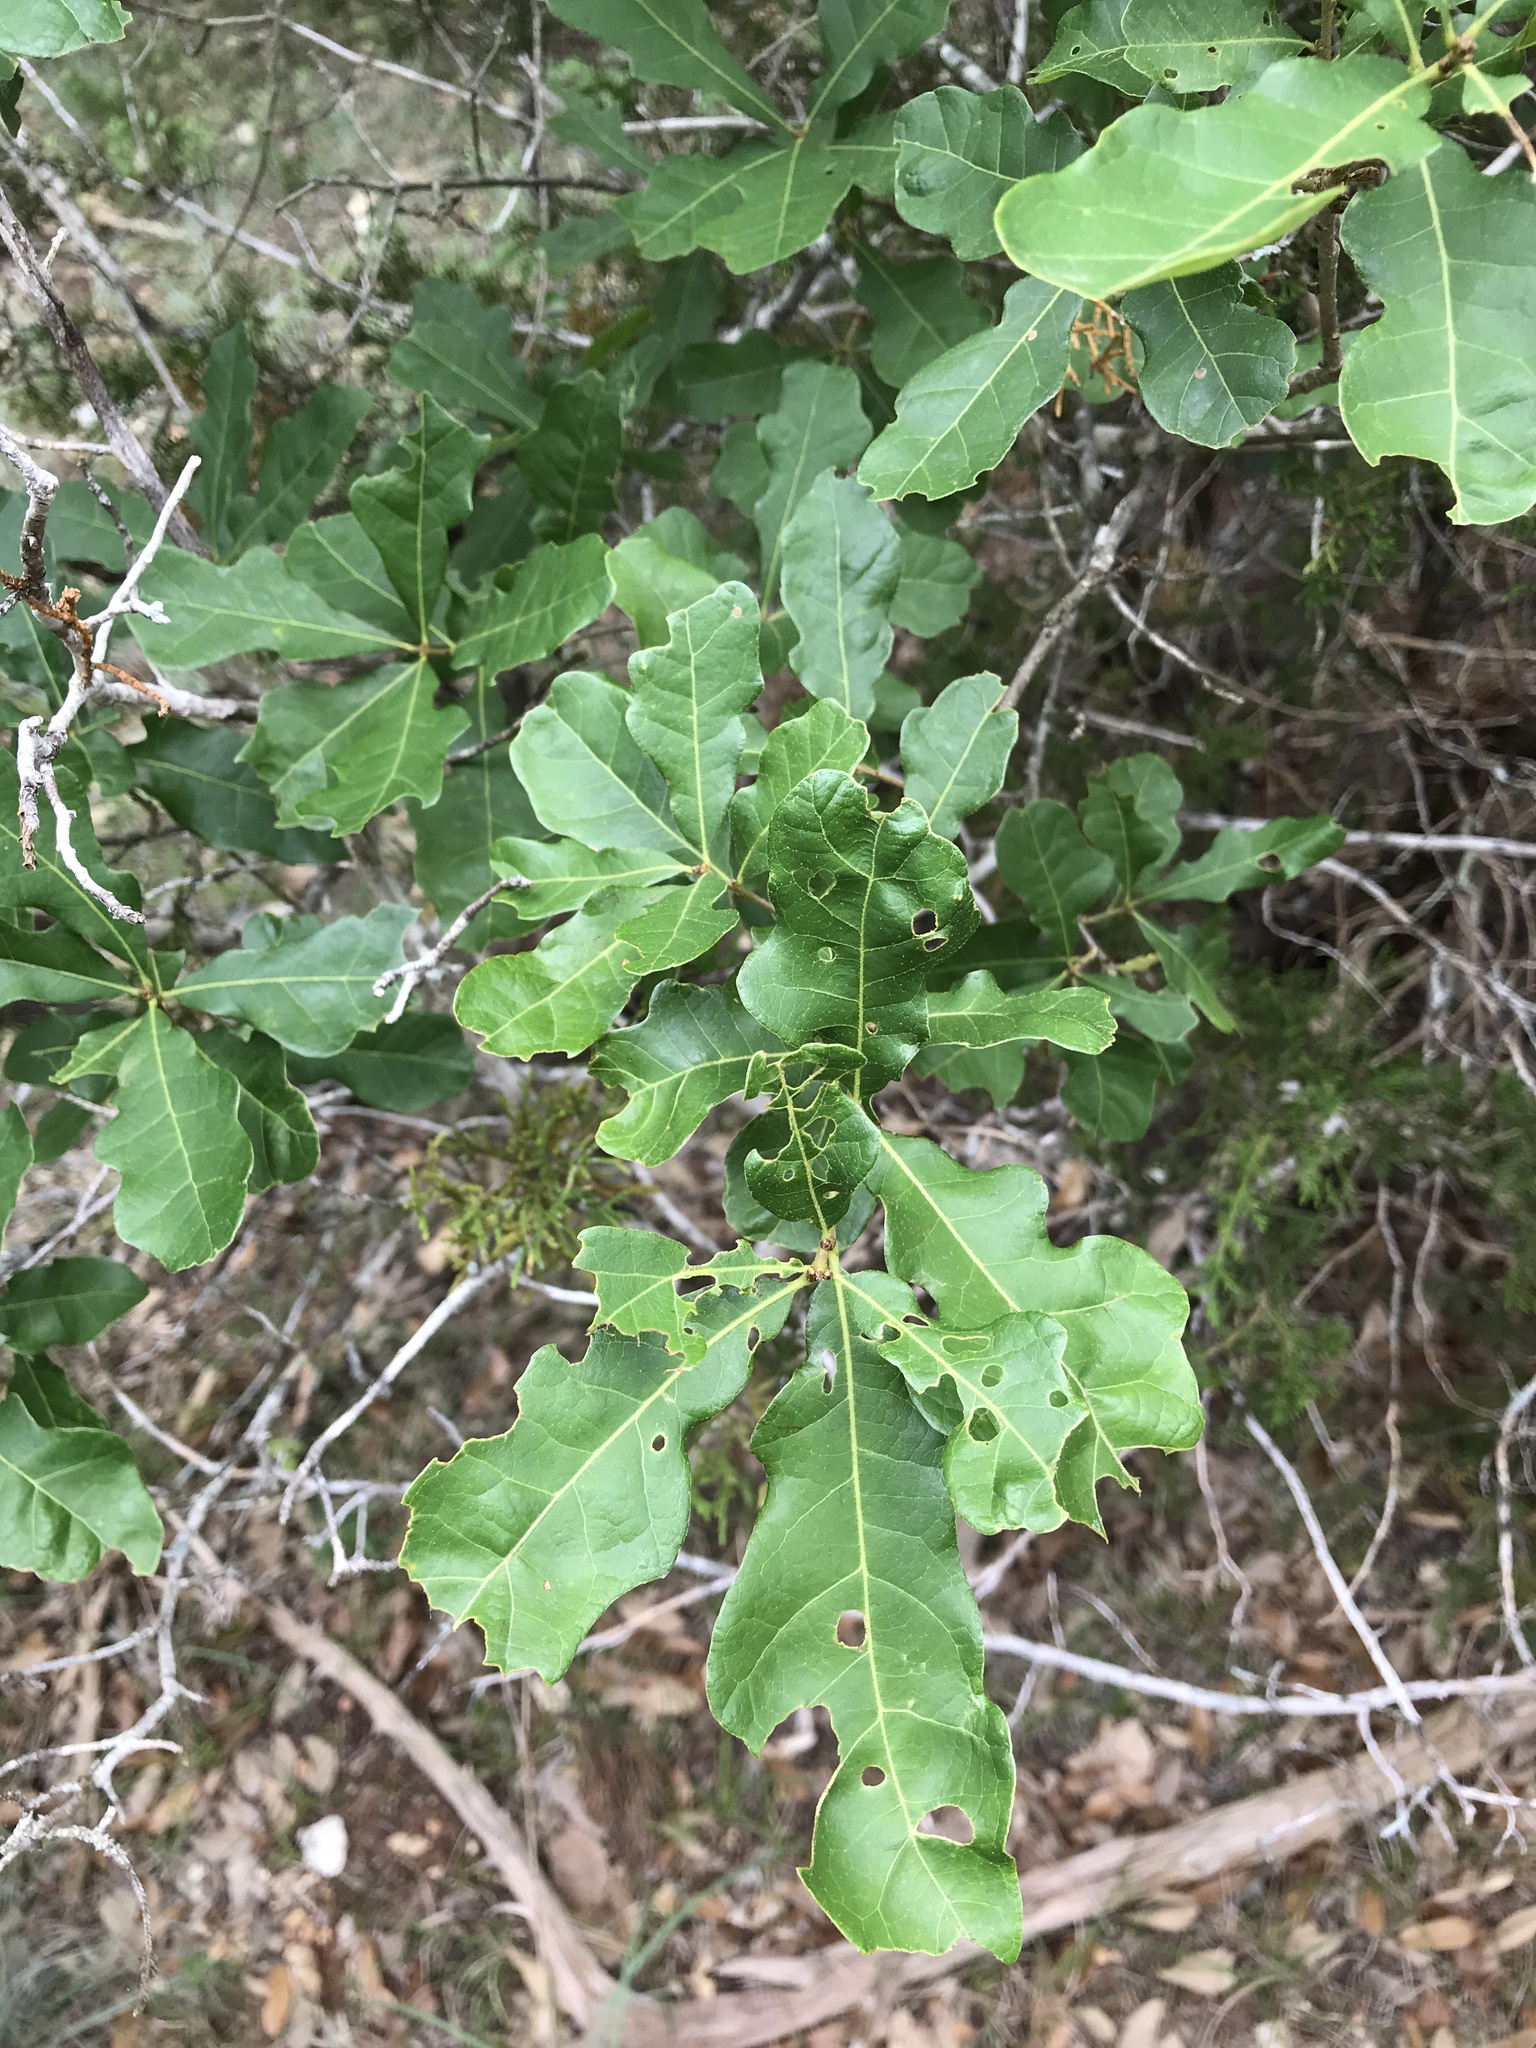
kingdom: Plantae
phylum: Tracheophyta
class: Magnoliopsida
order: Fagales
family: Fagaceae
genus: Quercus
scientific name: Quercus sinuata
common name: Durand oak
